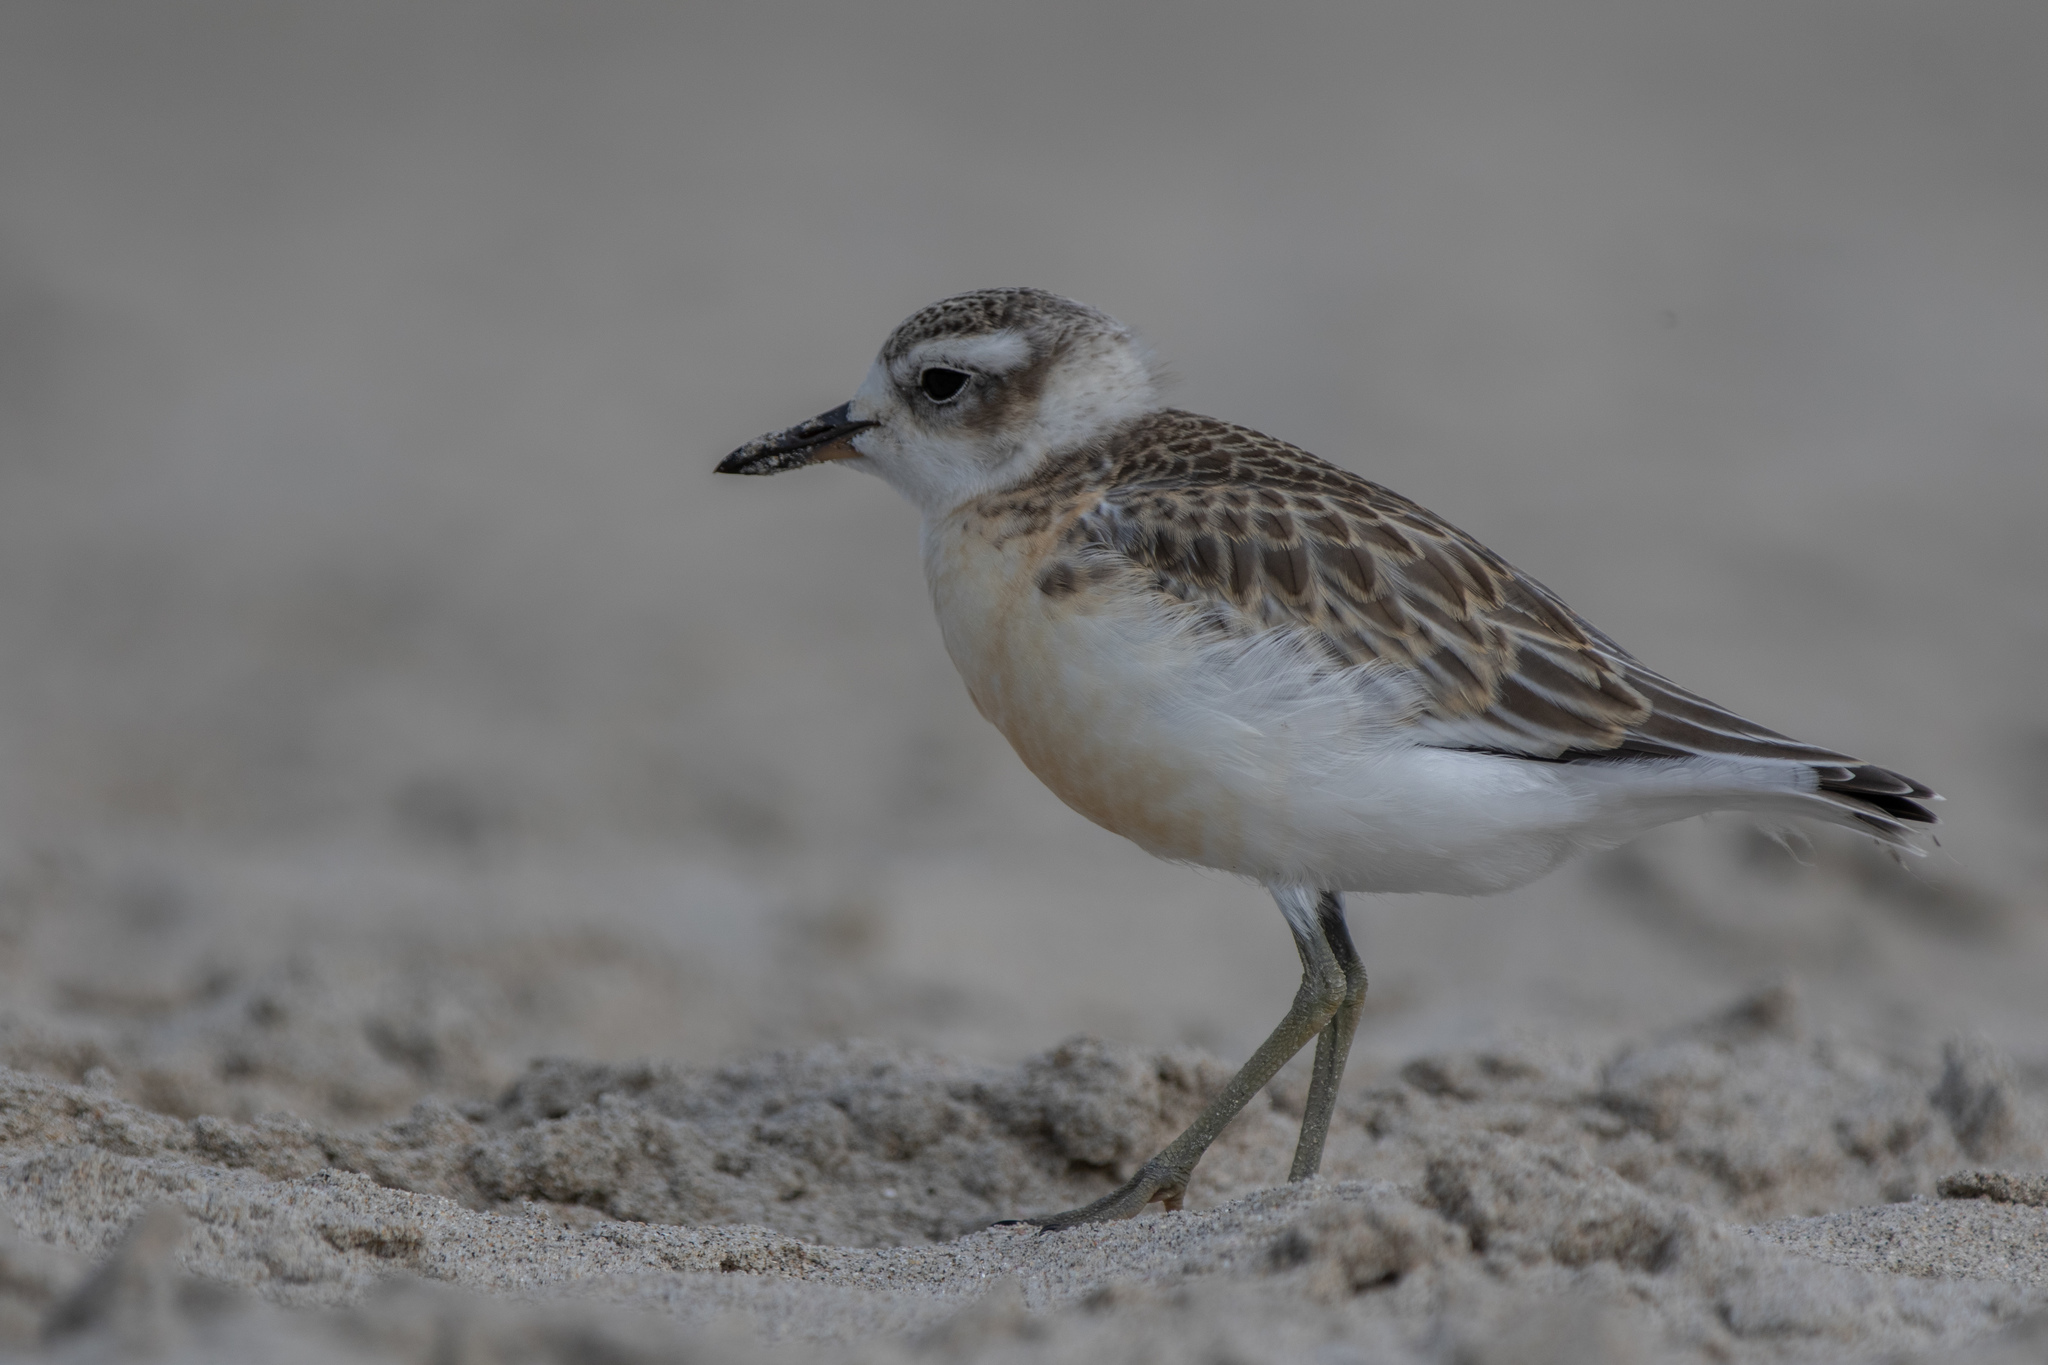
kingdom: Animalia
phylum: Chordata
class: Aves
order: Charadriiformes
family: Charadriidae
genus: Anarhynchus
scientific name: Anarhynchus
